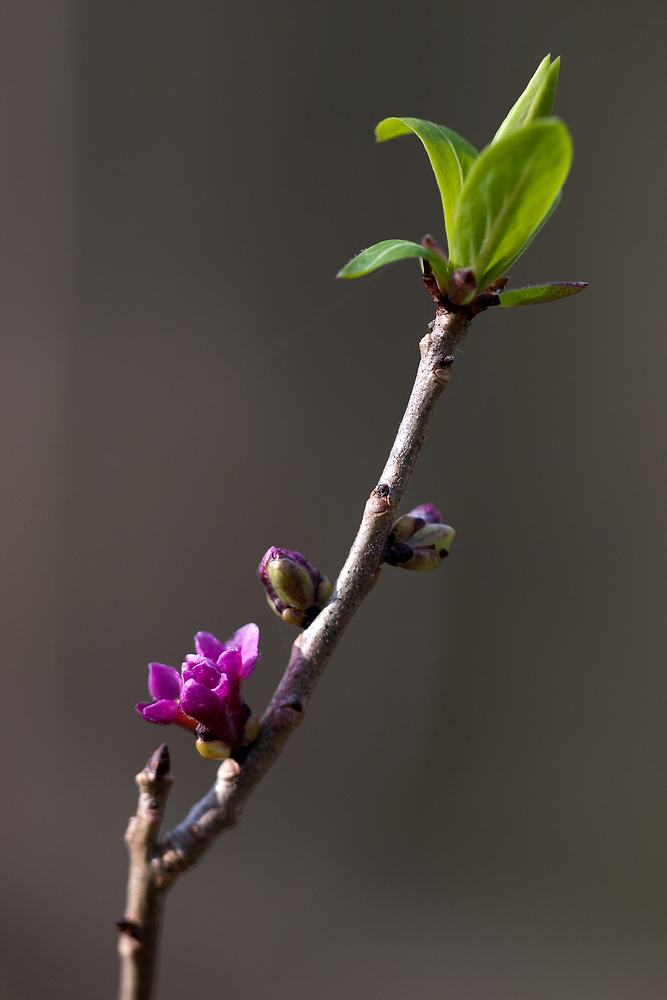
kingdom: Plantae
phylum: Tracheophyta
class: Magnoliopsida
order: Malvales
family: Thymelaeaceae
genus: Daphne
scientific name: Daphne mezereum
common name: Mezereon
